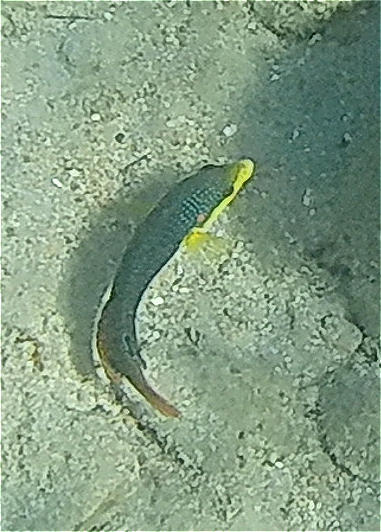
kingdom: Animalia
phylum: Chordata
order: Perciformes
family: Labridae
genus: Anampses
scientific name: Anampses twistii
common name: Yellowbreasted wrasse
